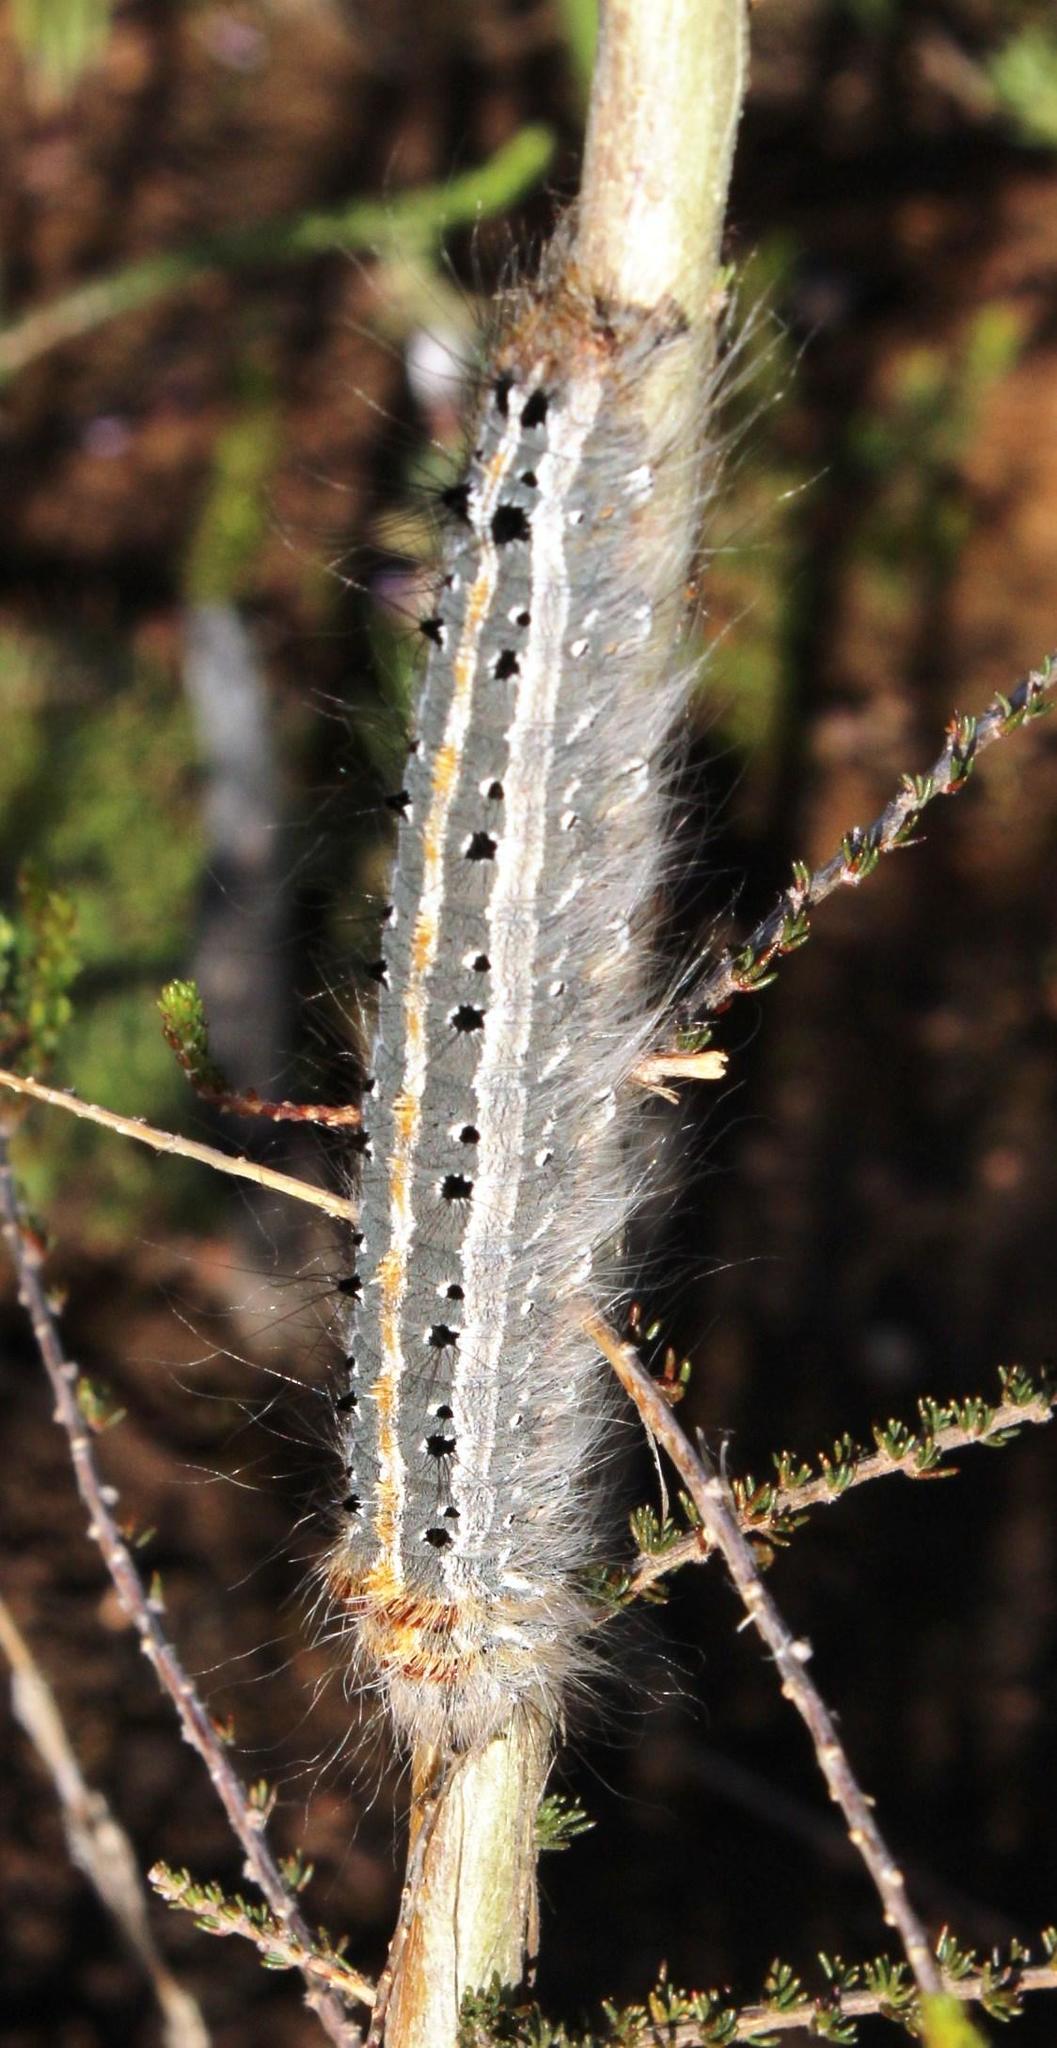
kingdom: Animalia
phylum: Arthropoda
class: Insecta
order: Lepidoptera
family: Lasiocampidae
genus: Streblote
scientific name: Streblote cristata
